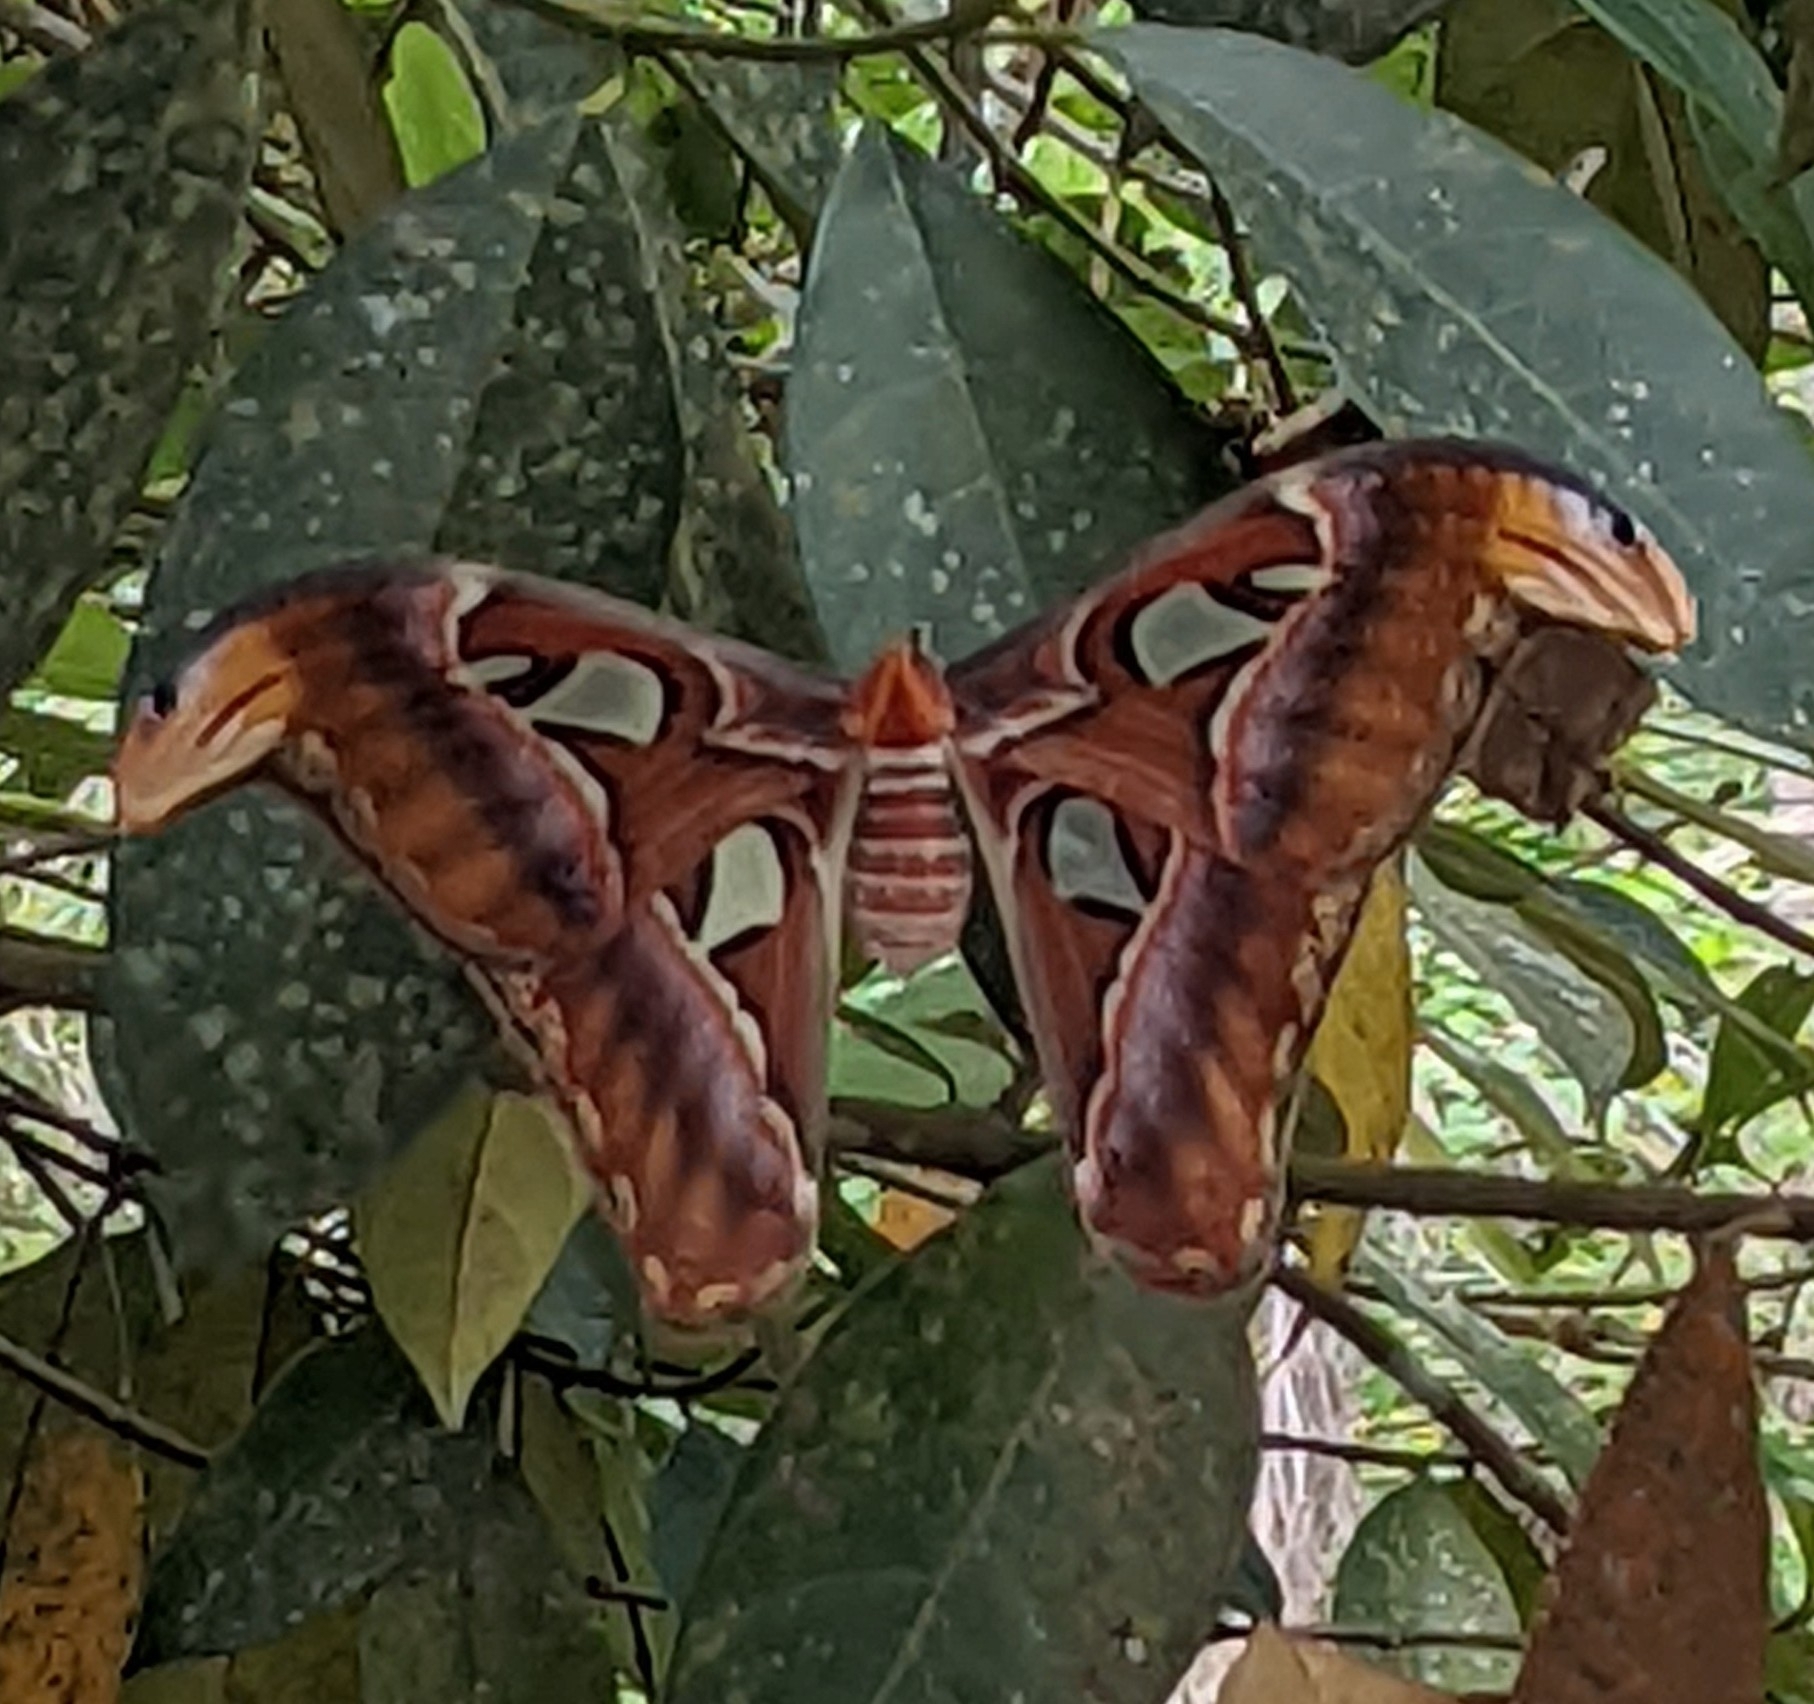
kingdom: Animalia
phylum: Arthropoda
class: Insecta
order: Lepidoptera
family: Saturniidae
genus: Attacus
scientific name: Attacus atlas
